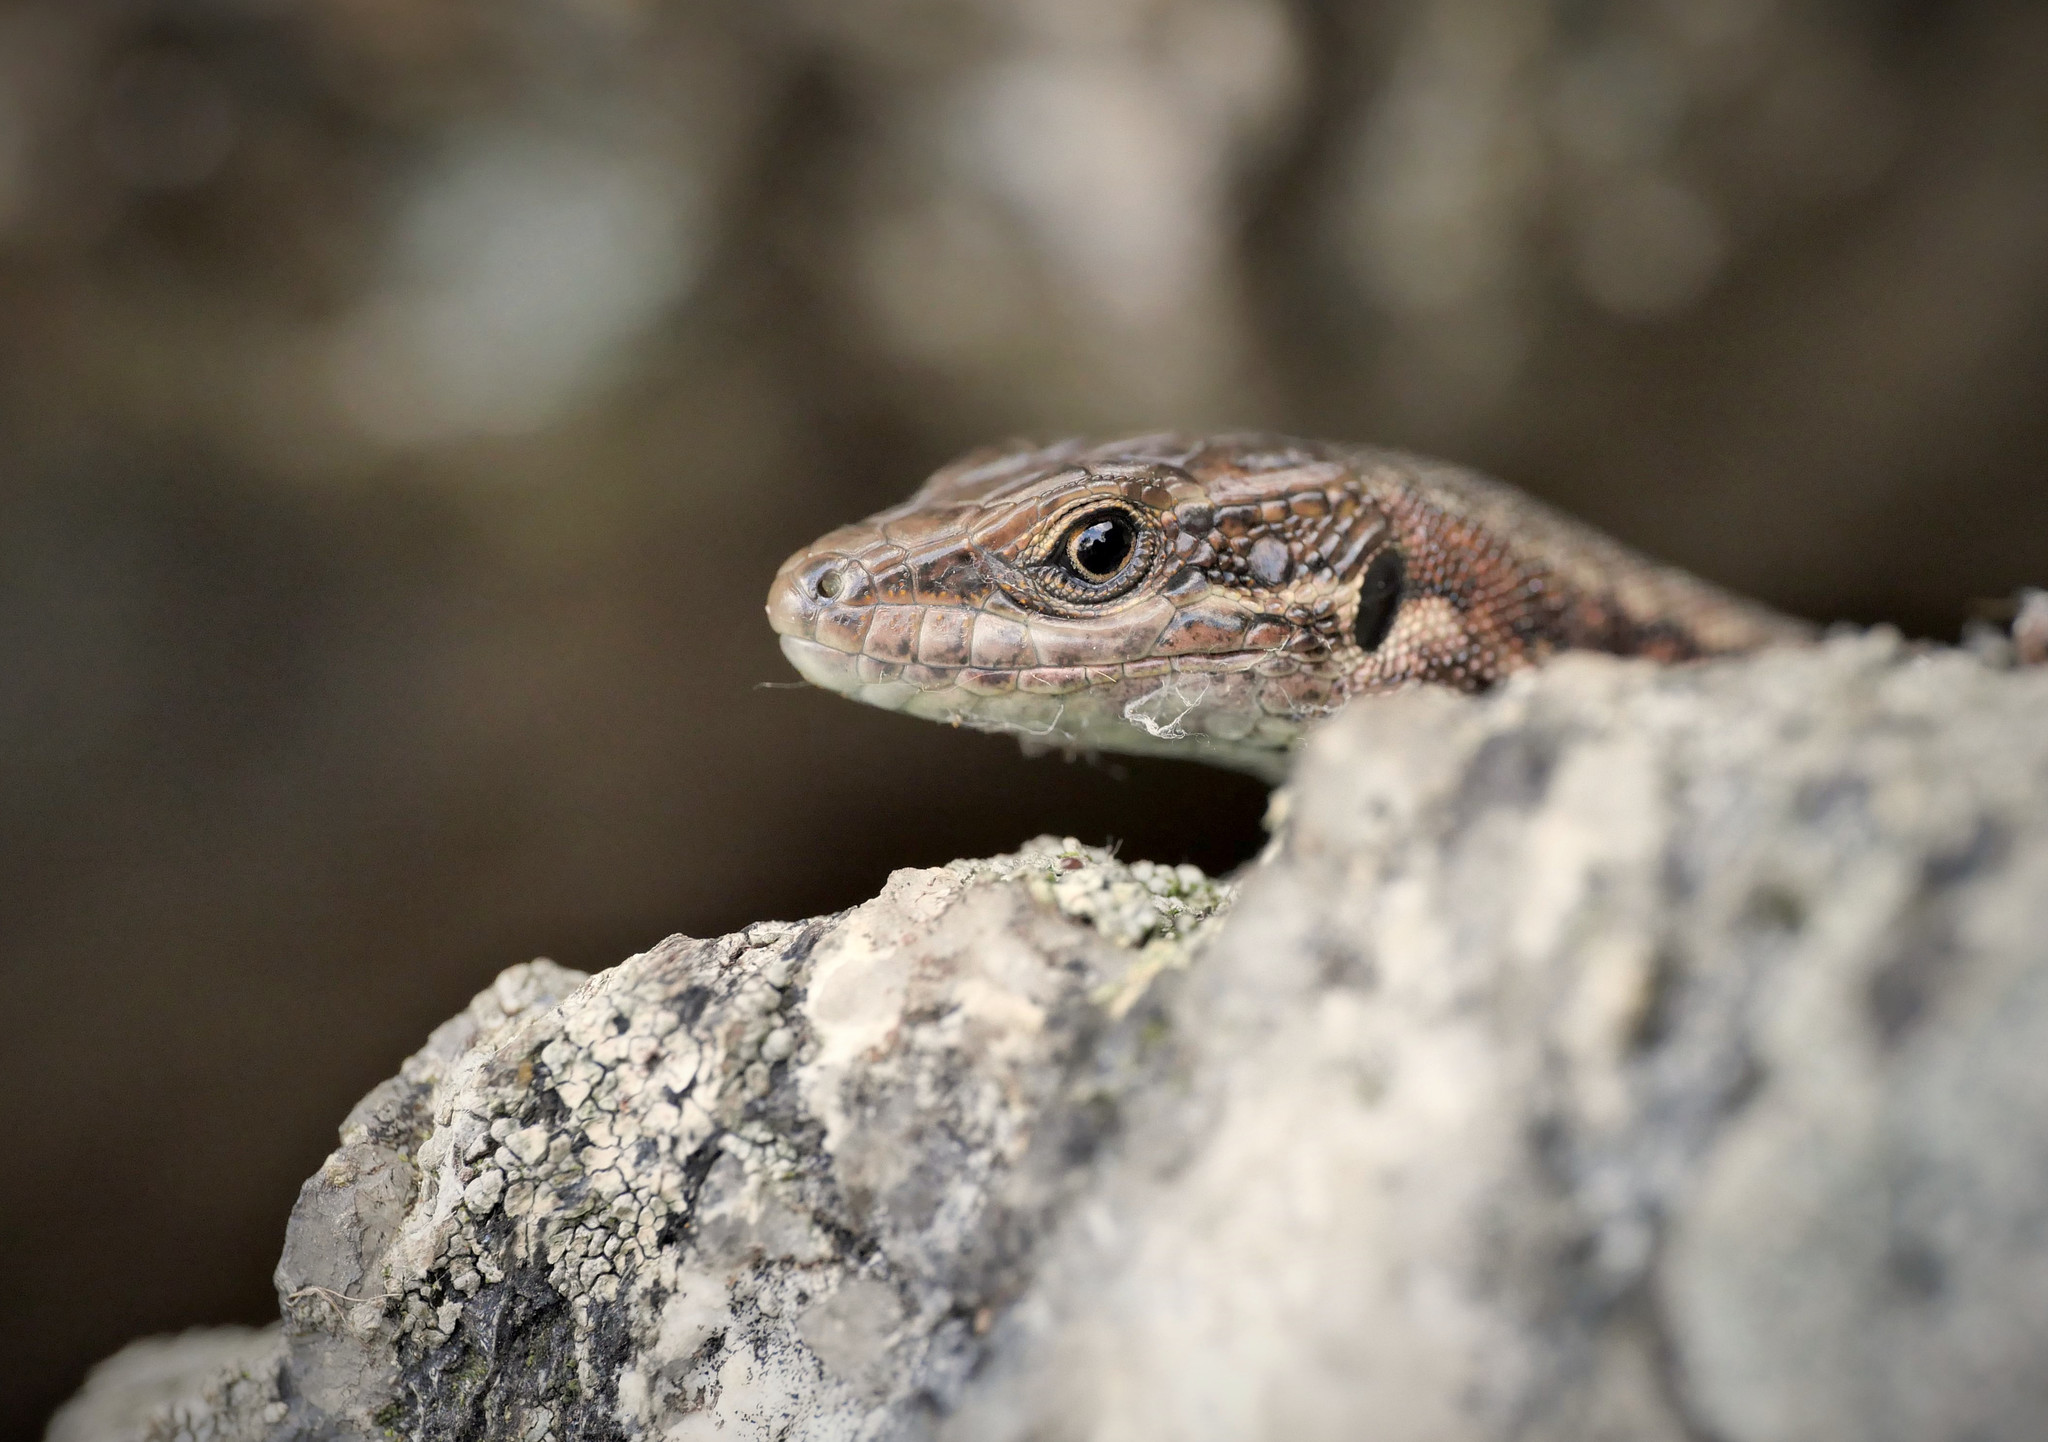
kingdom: Animalia
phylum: Chordata
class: Squamata
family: Lacertidae
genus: Podarcis
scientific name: Podarcis muralis
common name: Common wall lizard
